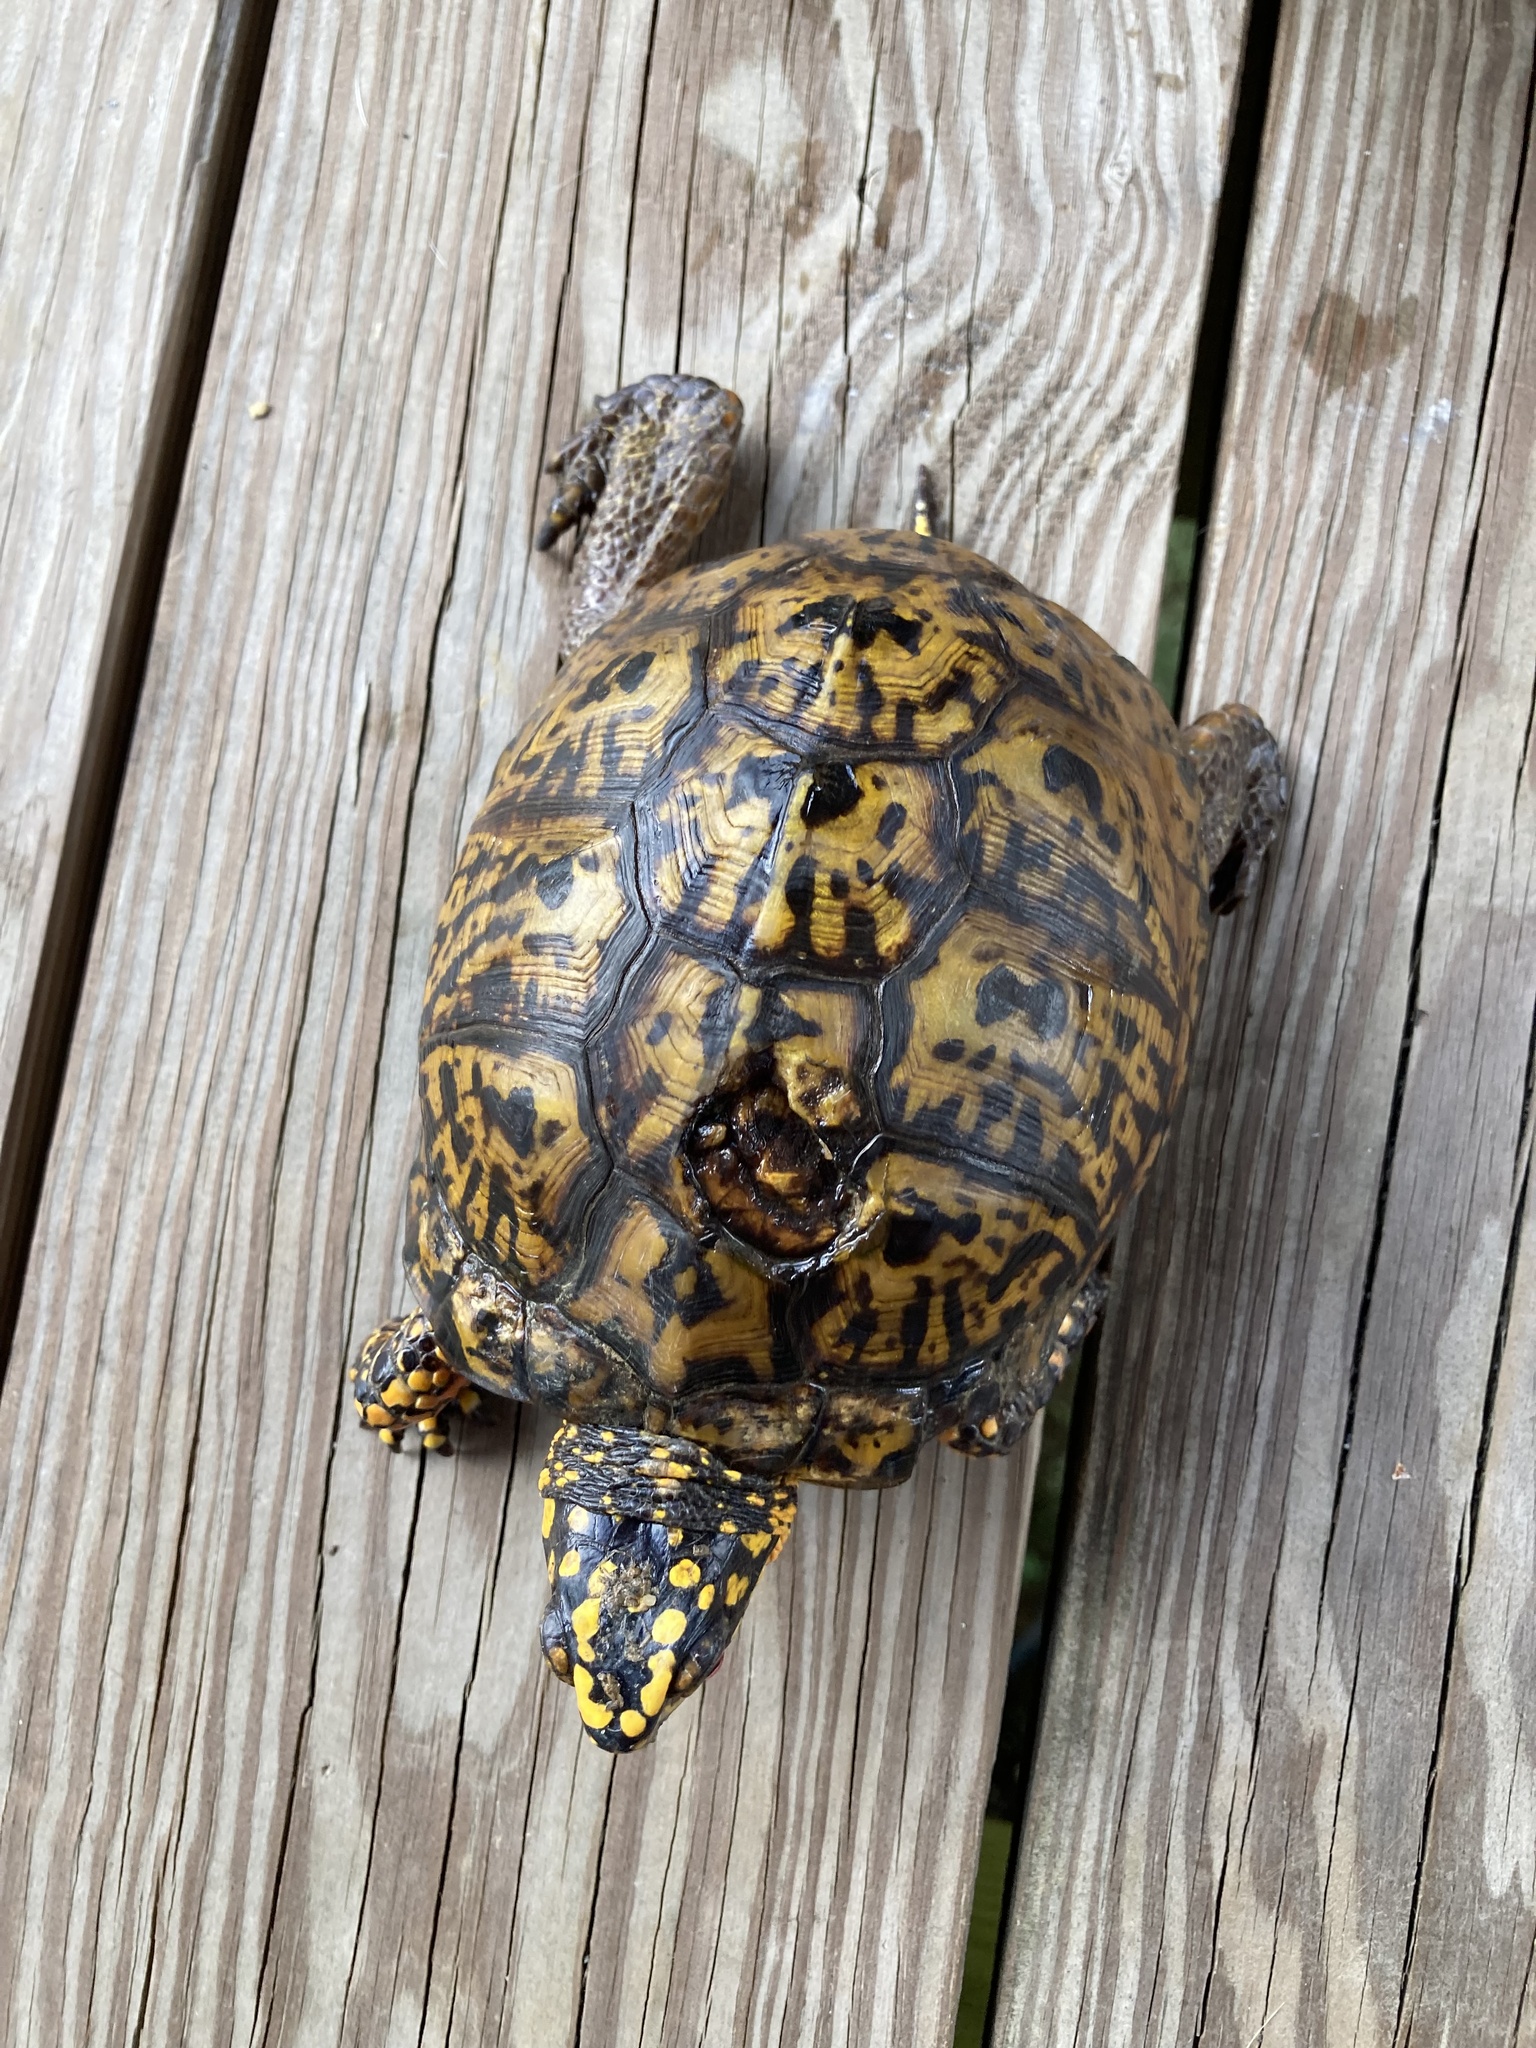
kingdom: Animalia
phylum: Chordata
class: Testudines
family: Emydidae
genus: Terrapene
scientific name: Terrapene carolina
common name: Common box turtle
